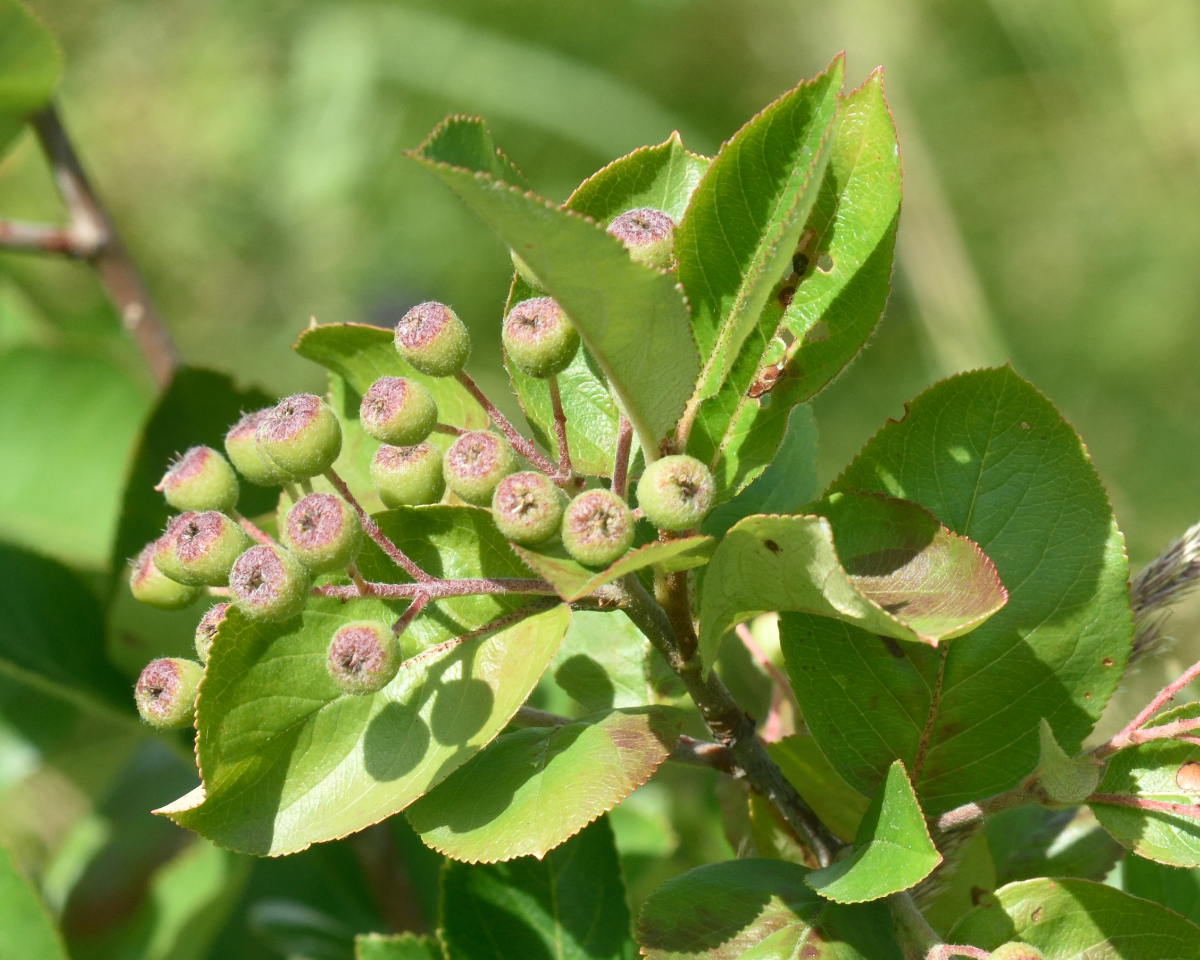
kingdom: Plantae
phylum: Tracheophyta
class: Magnoliopsida
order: Rosales
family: Rosaceae
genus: Sorbaronia
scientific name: Sorbaronia arsenii
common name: Arsène's mountain-ash
